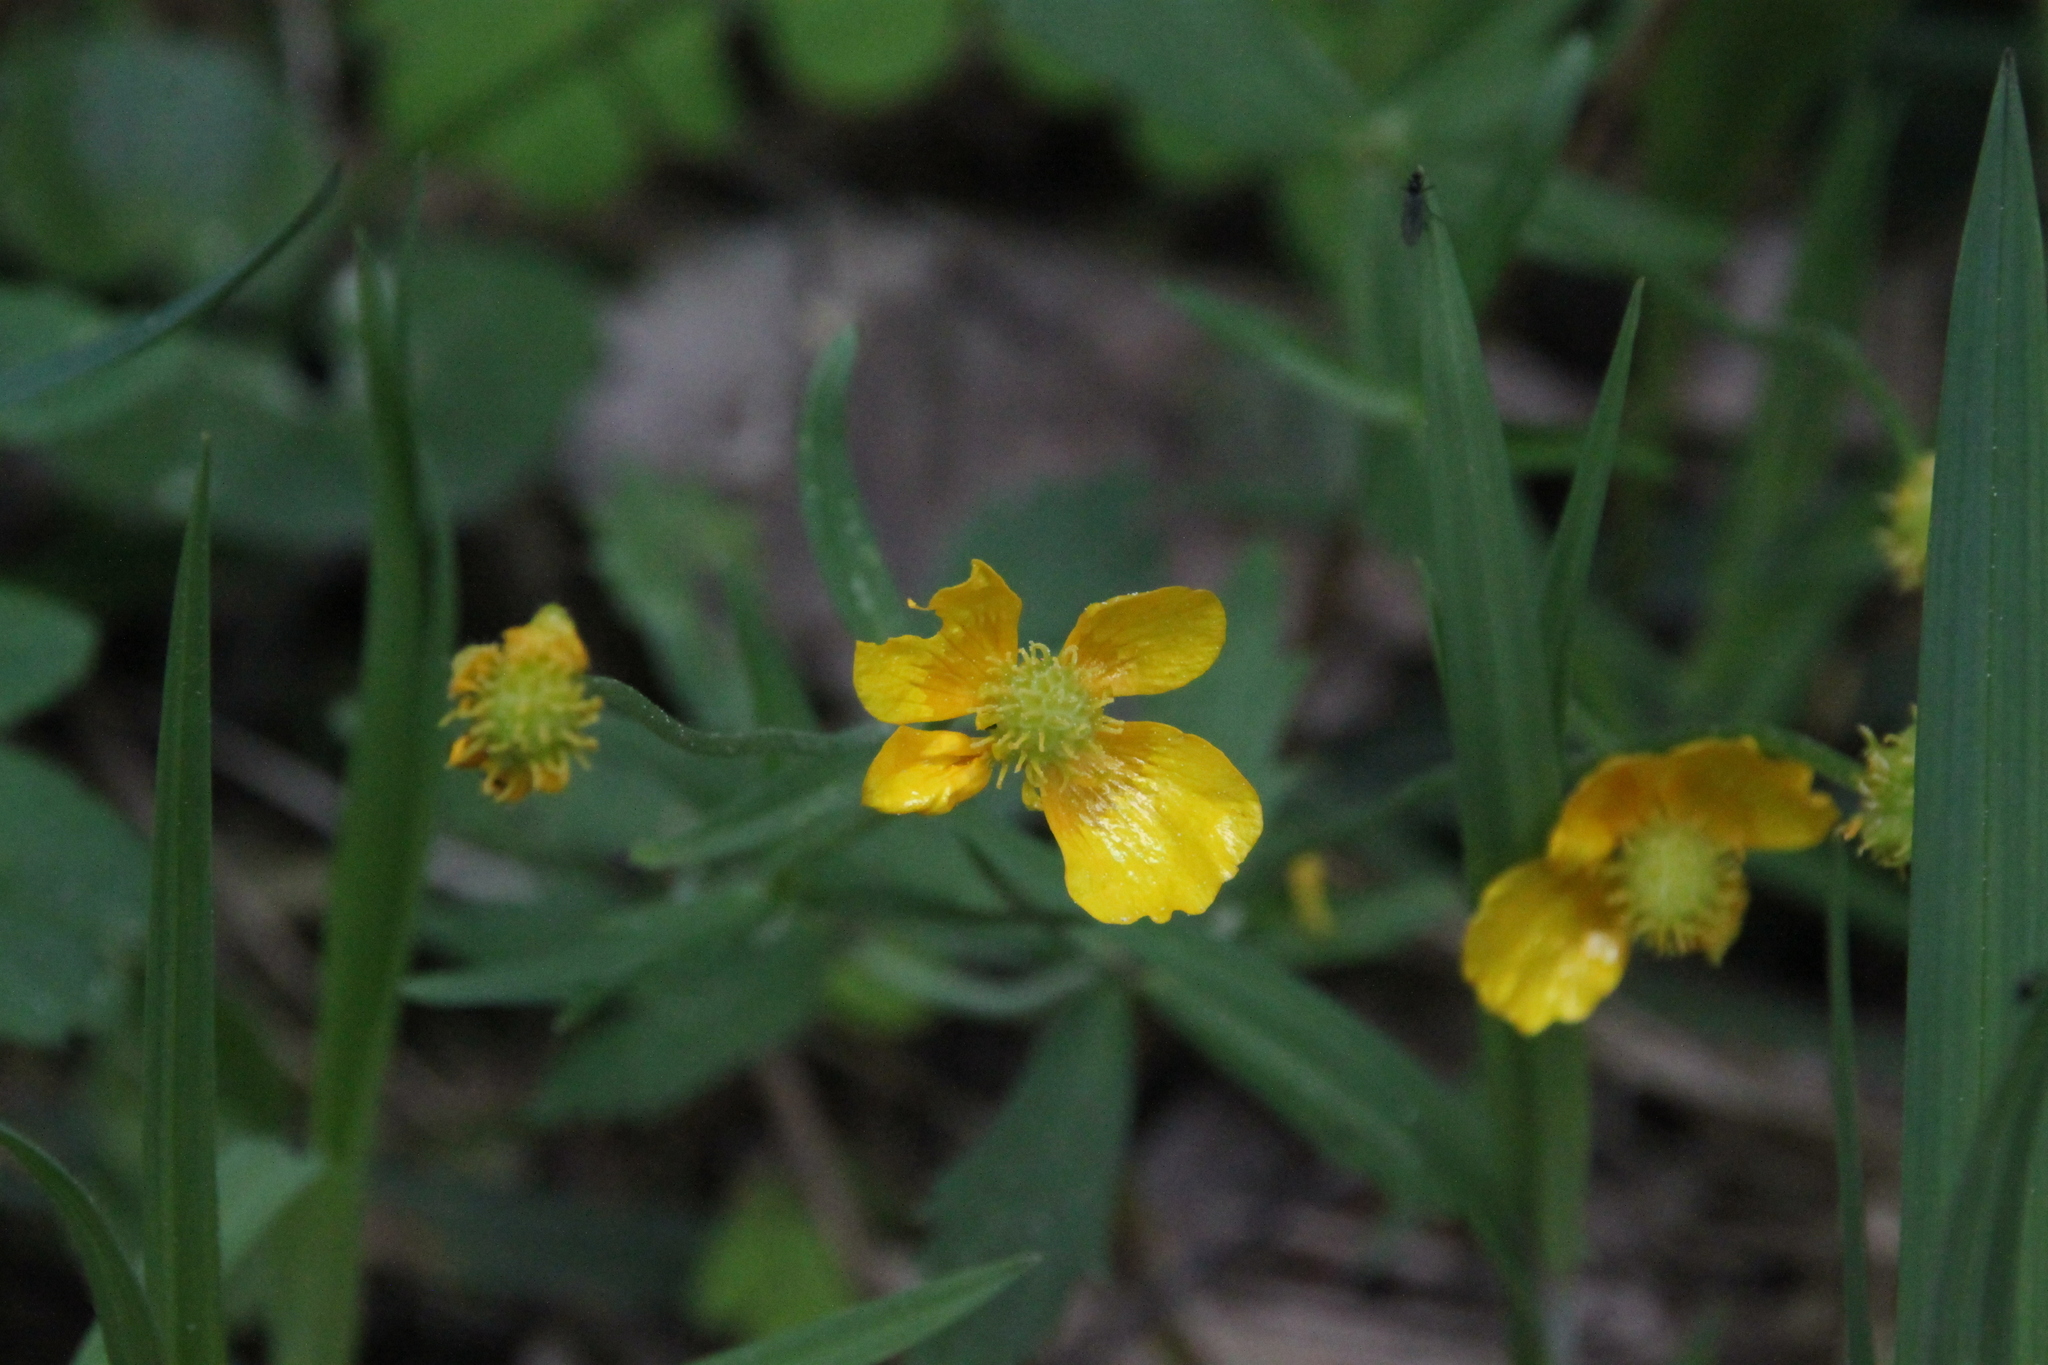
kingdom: Plantae
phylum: Tracheophyta
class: Magnoliopsida
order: Ranunculales
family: Ranunculaceae
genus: Ranunculus
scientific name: Ranunculus cassubicus
